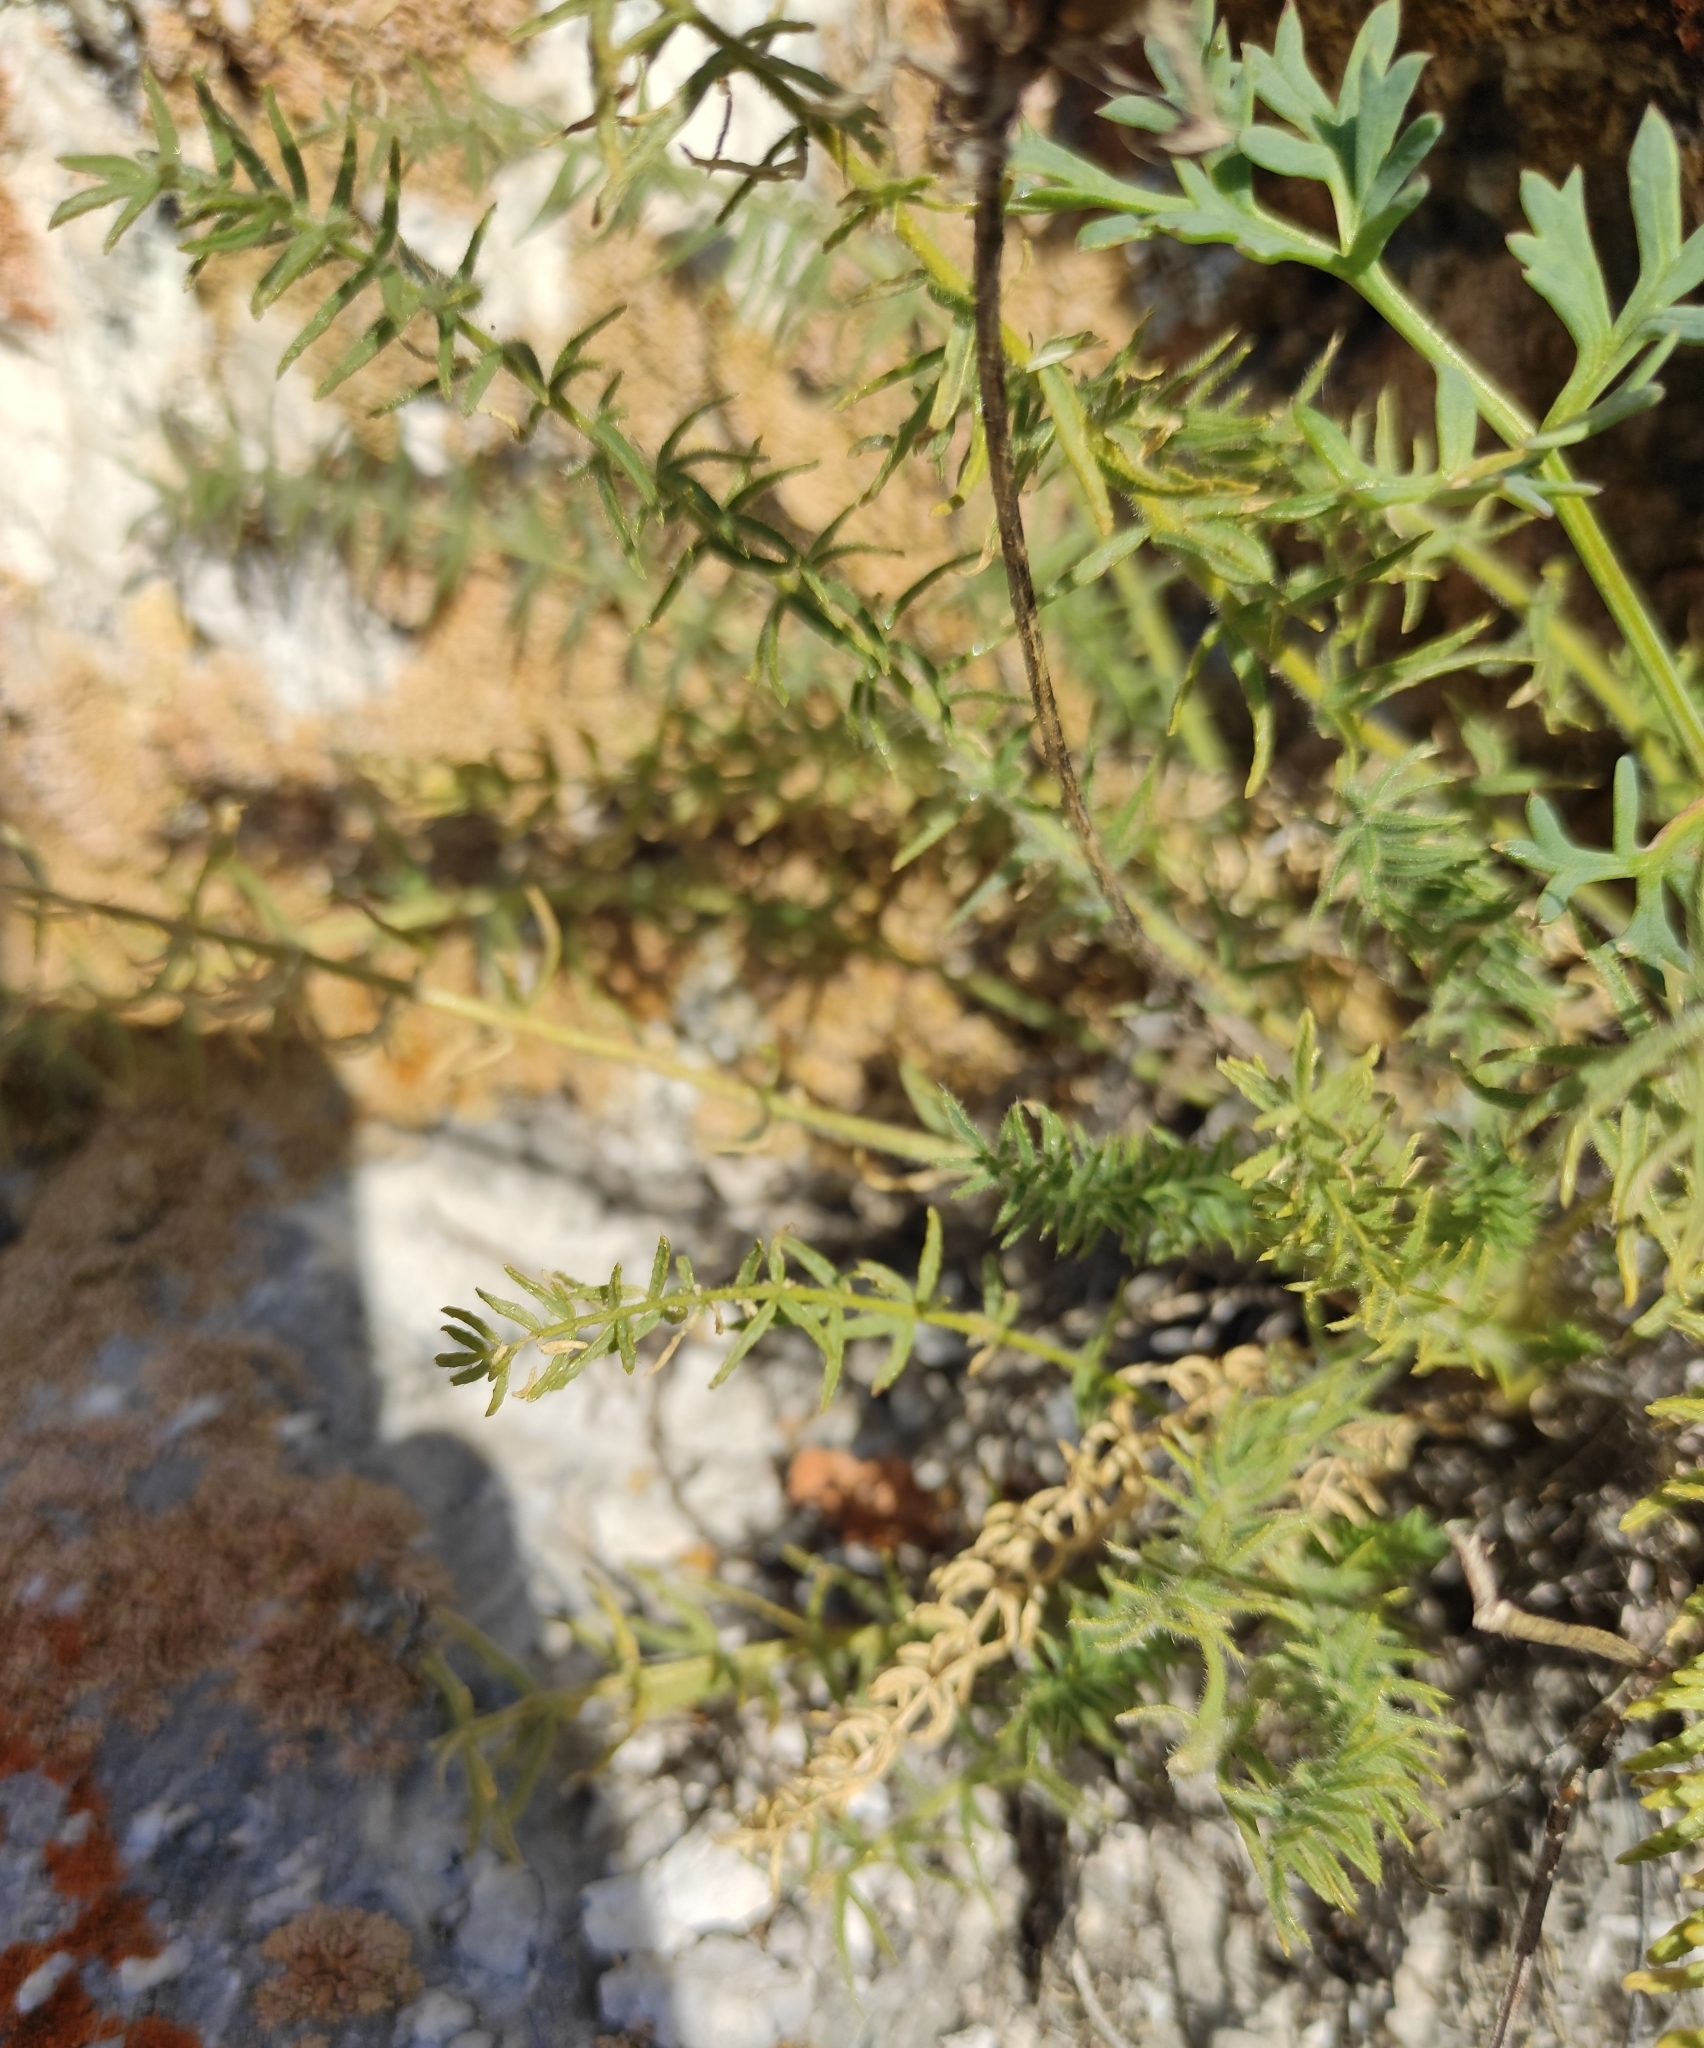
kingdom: Plantae
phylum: Tracheophyta
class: Magnoliopsida
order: Fabales
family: Fabaceae
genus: Oxytropis
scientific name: Oxytropis muricata
